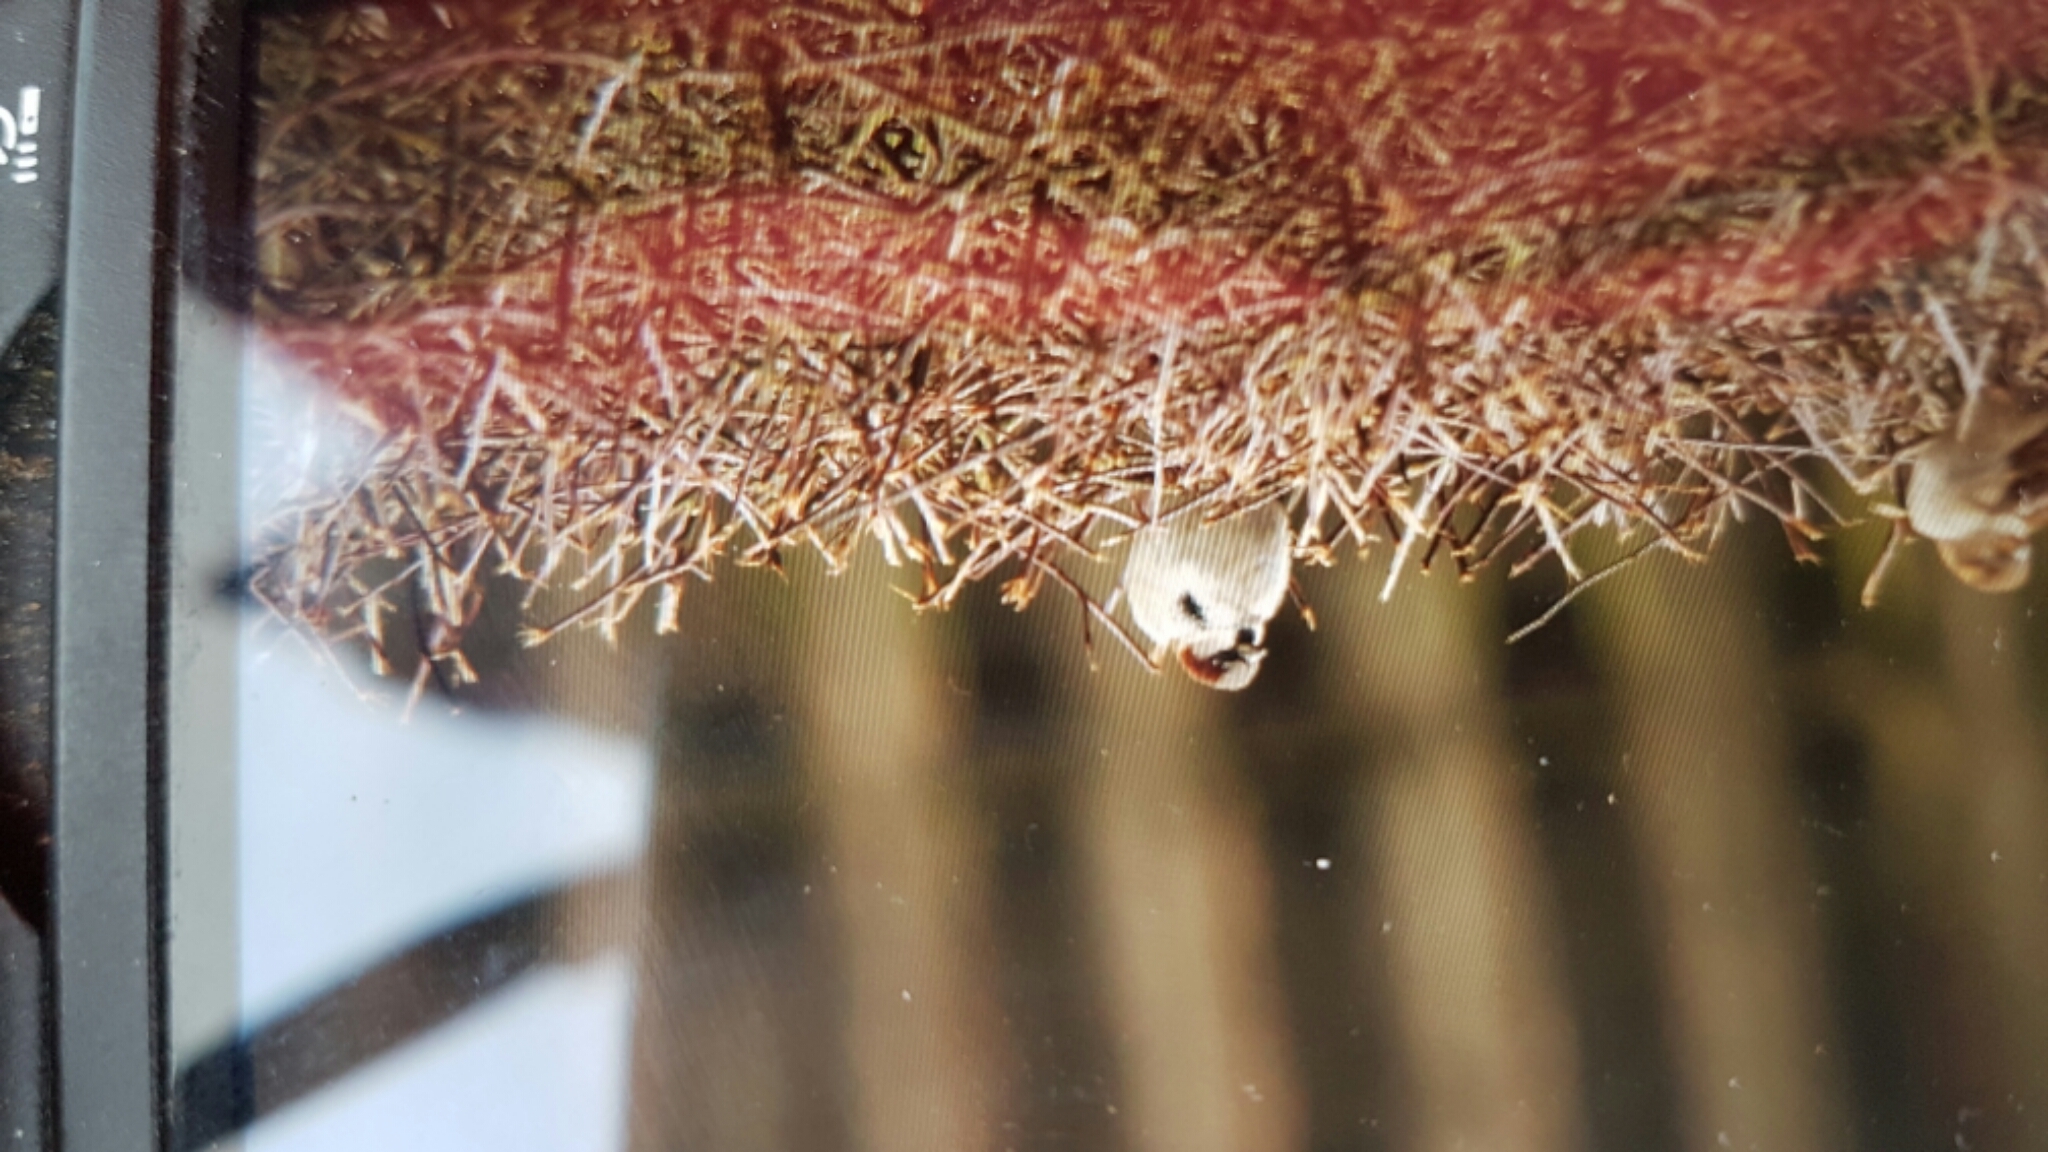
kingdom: Animalia
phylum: Chordata
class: Aves
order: Passeriformes
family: Passeridae
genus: Passer
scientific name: Passer domesticus
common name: House sparrow
